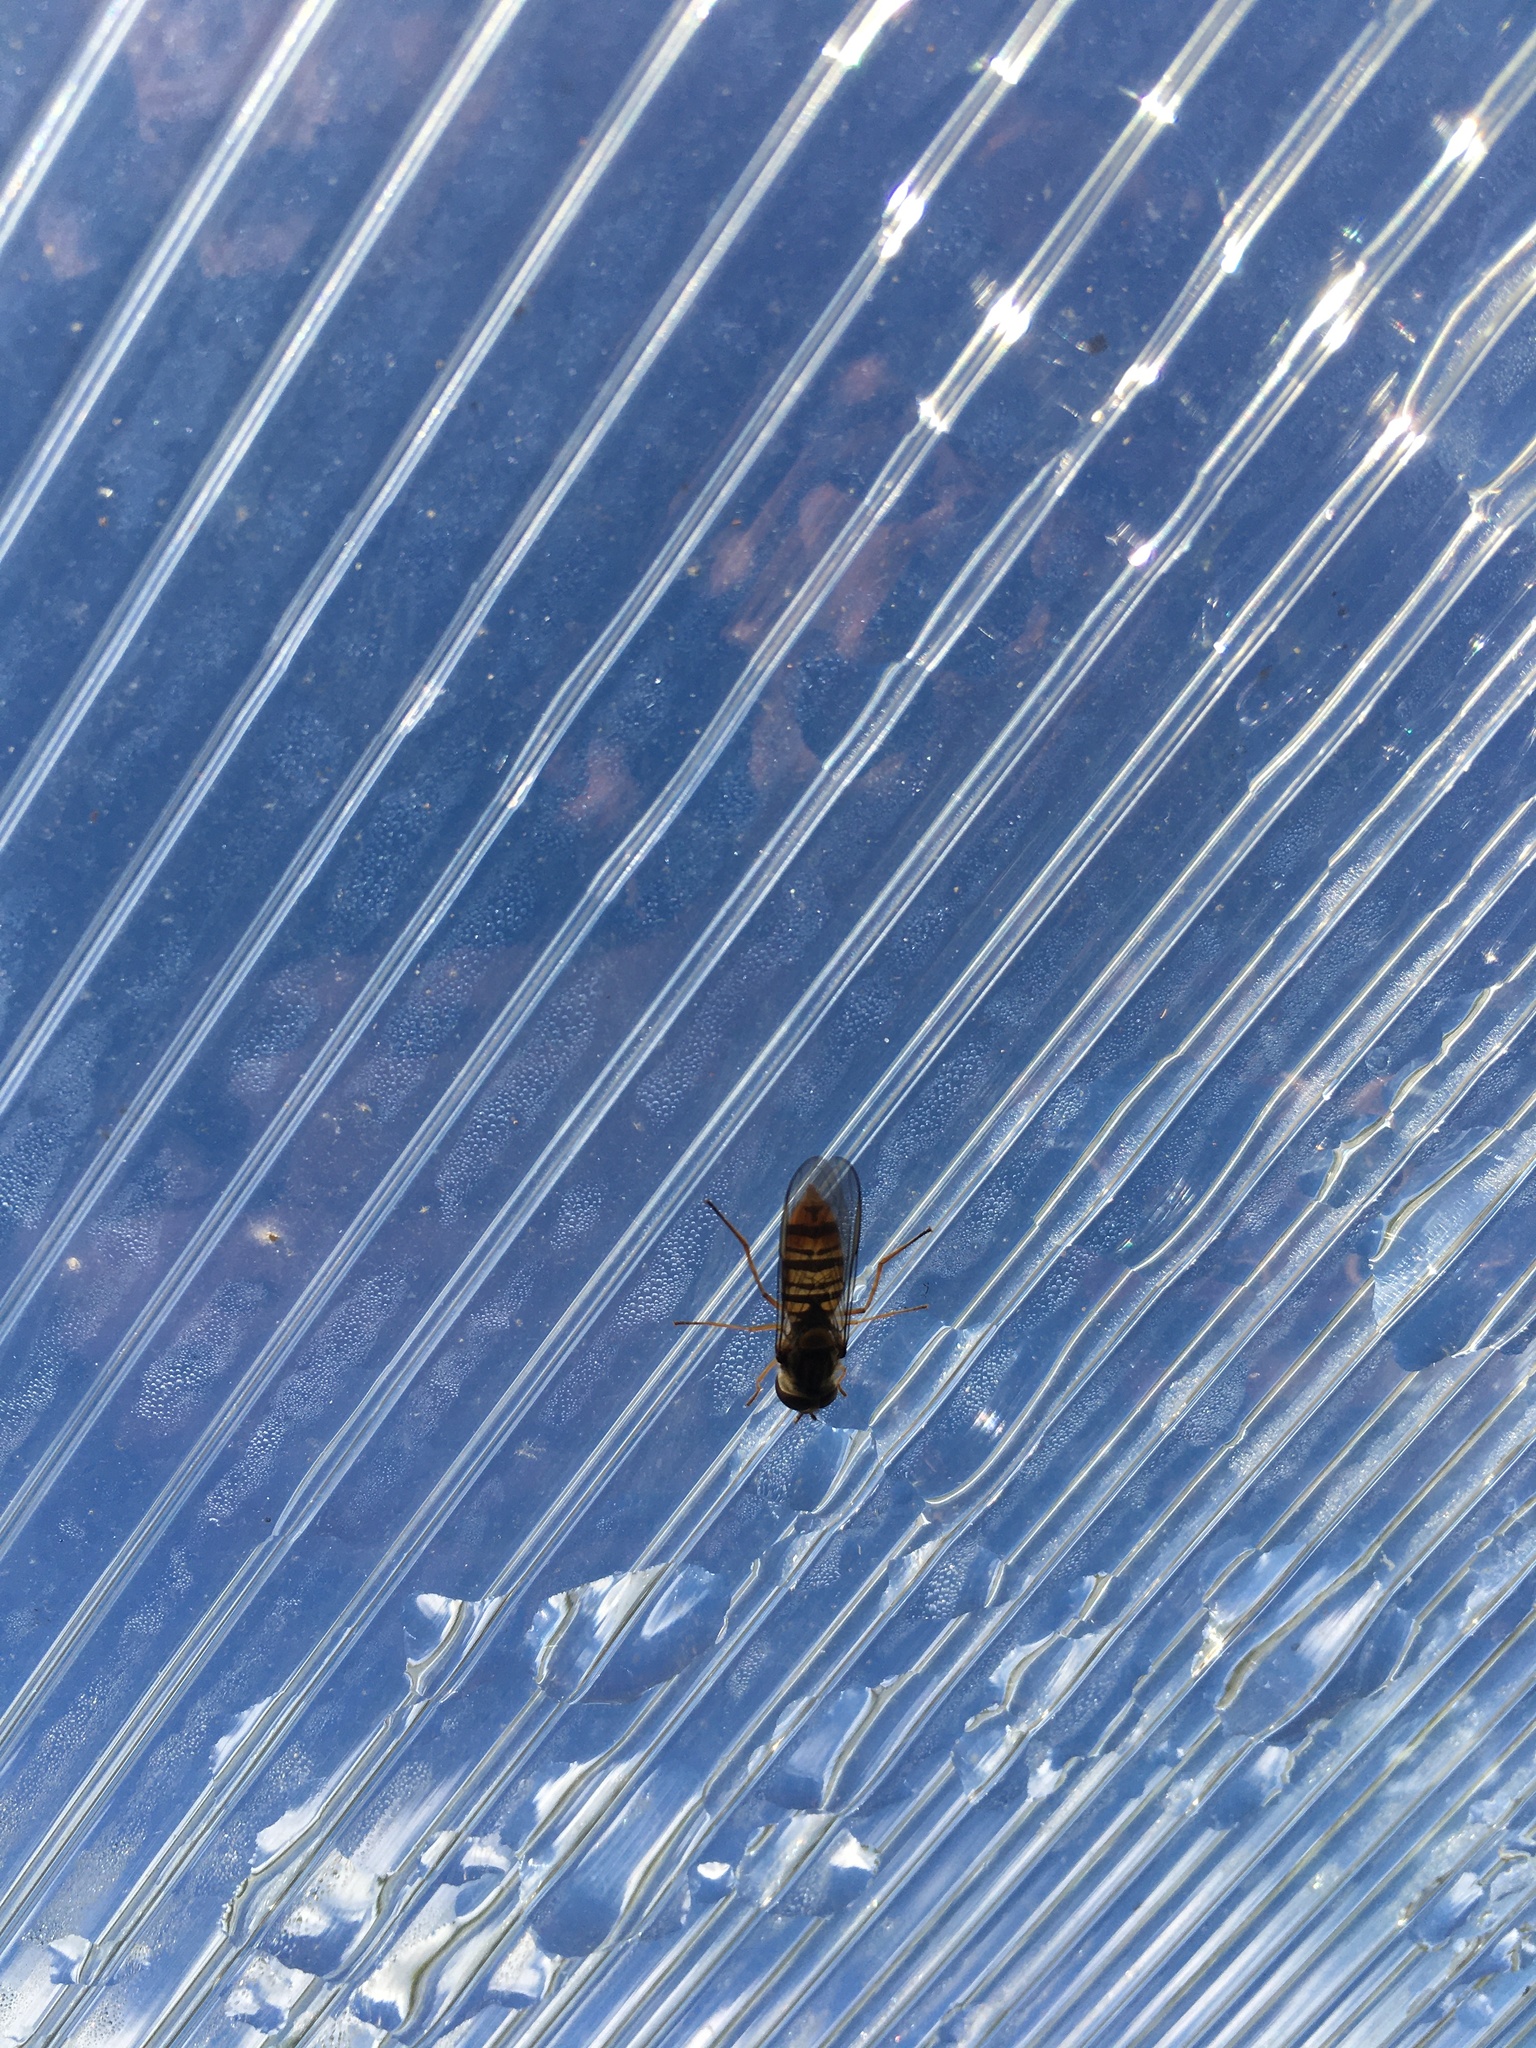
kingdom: Animalia
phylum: Arthropoda
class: Insecta
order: Diptera
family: Syrphidae
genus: Episyrphus
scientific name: Episyrphus balteatus
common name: Marmalade hoverfly
